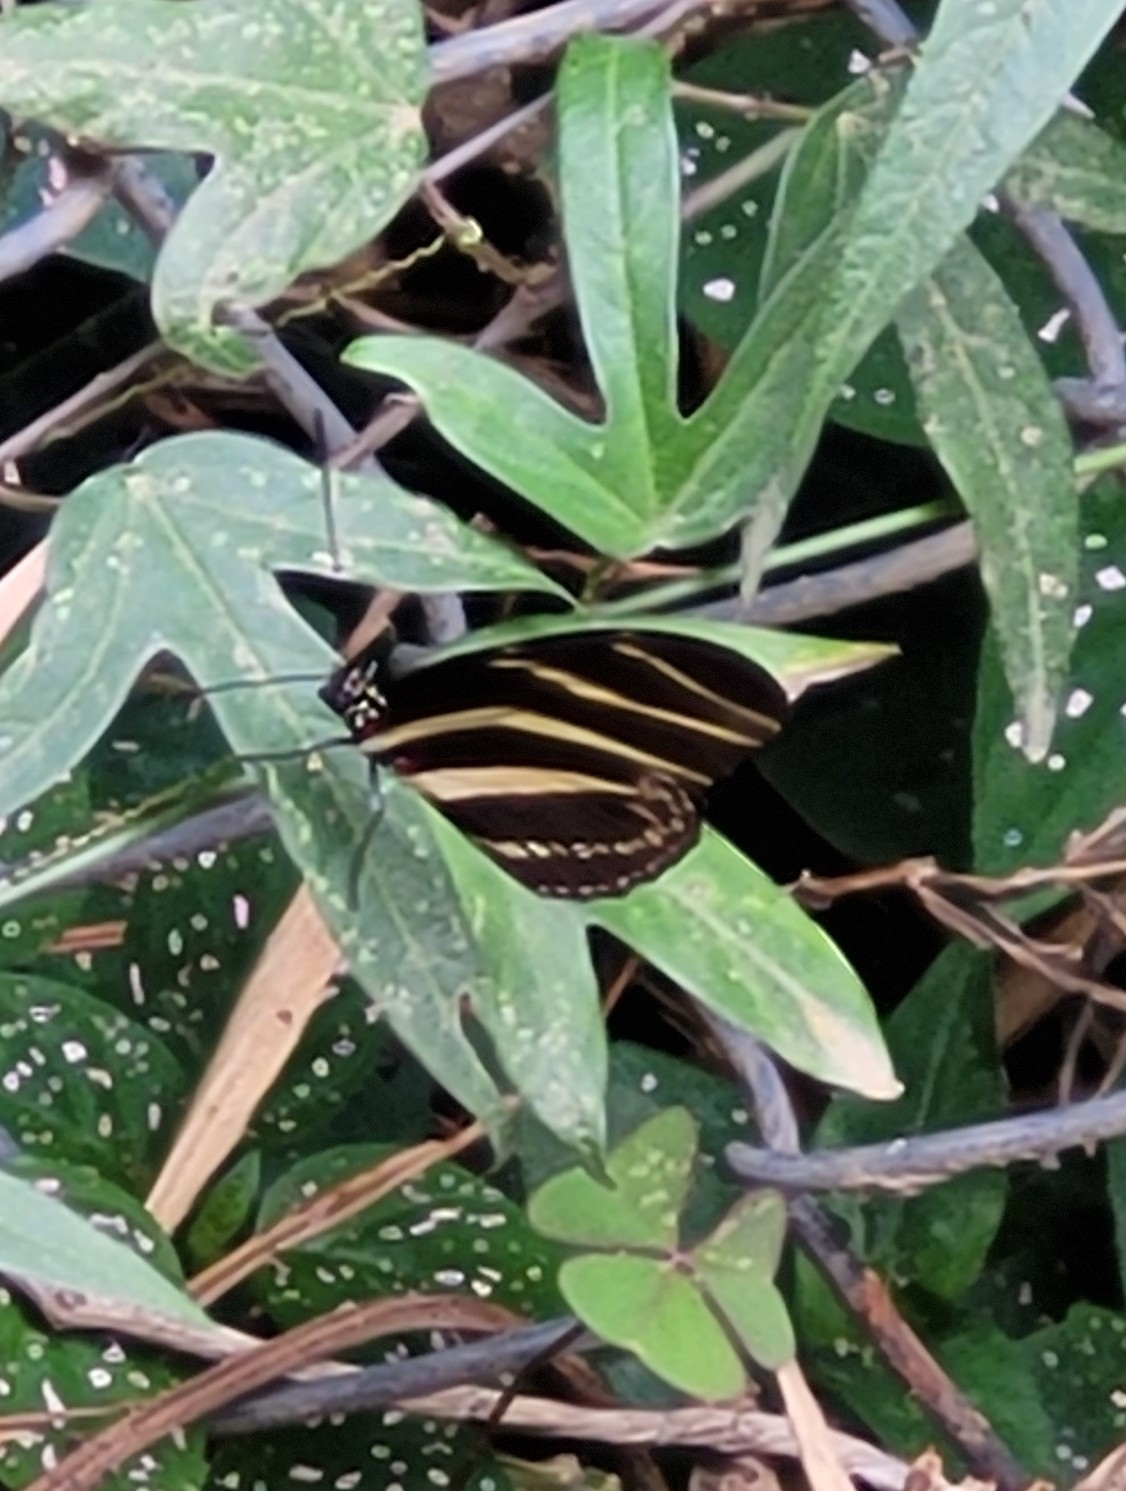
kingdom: Animalia
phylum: Arthropoda
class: Insecta
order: Lepidoptera
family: Nymphalidae
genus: Heliconius
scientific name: Heliconius charithonia
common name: Zebra long wing
